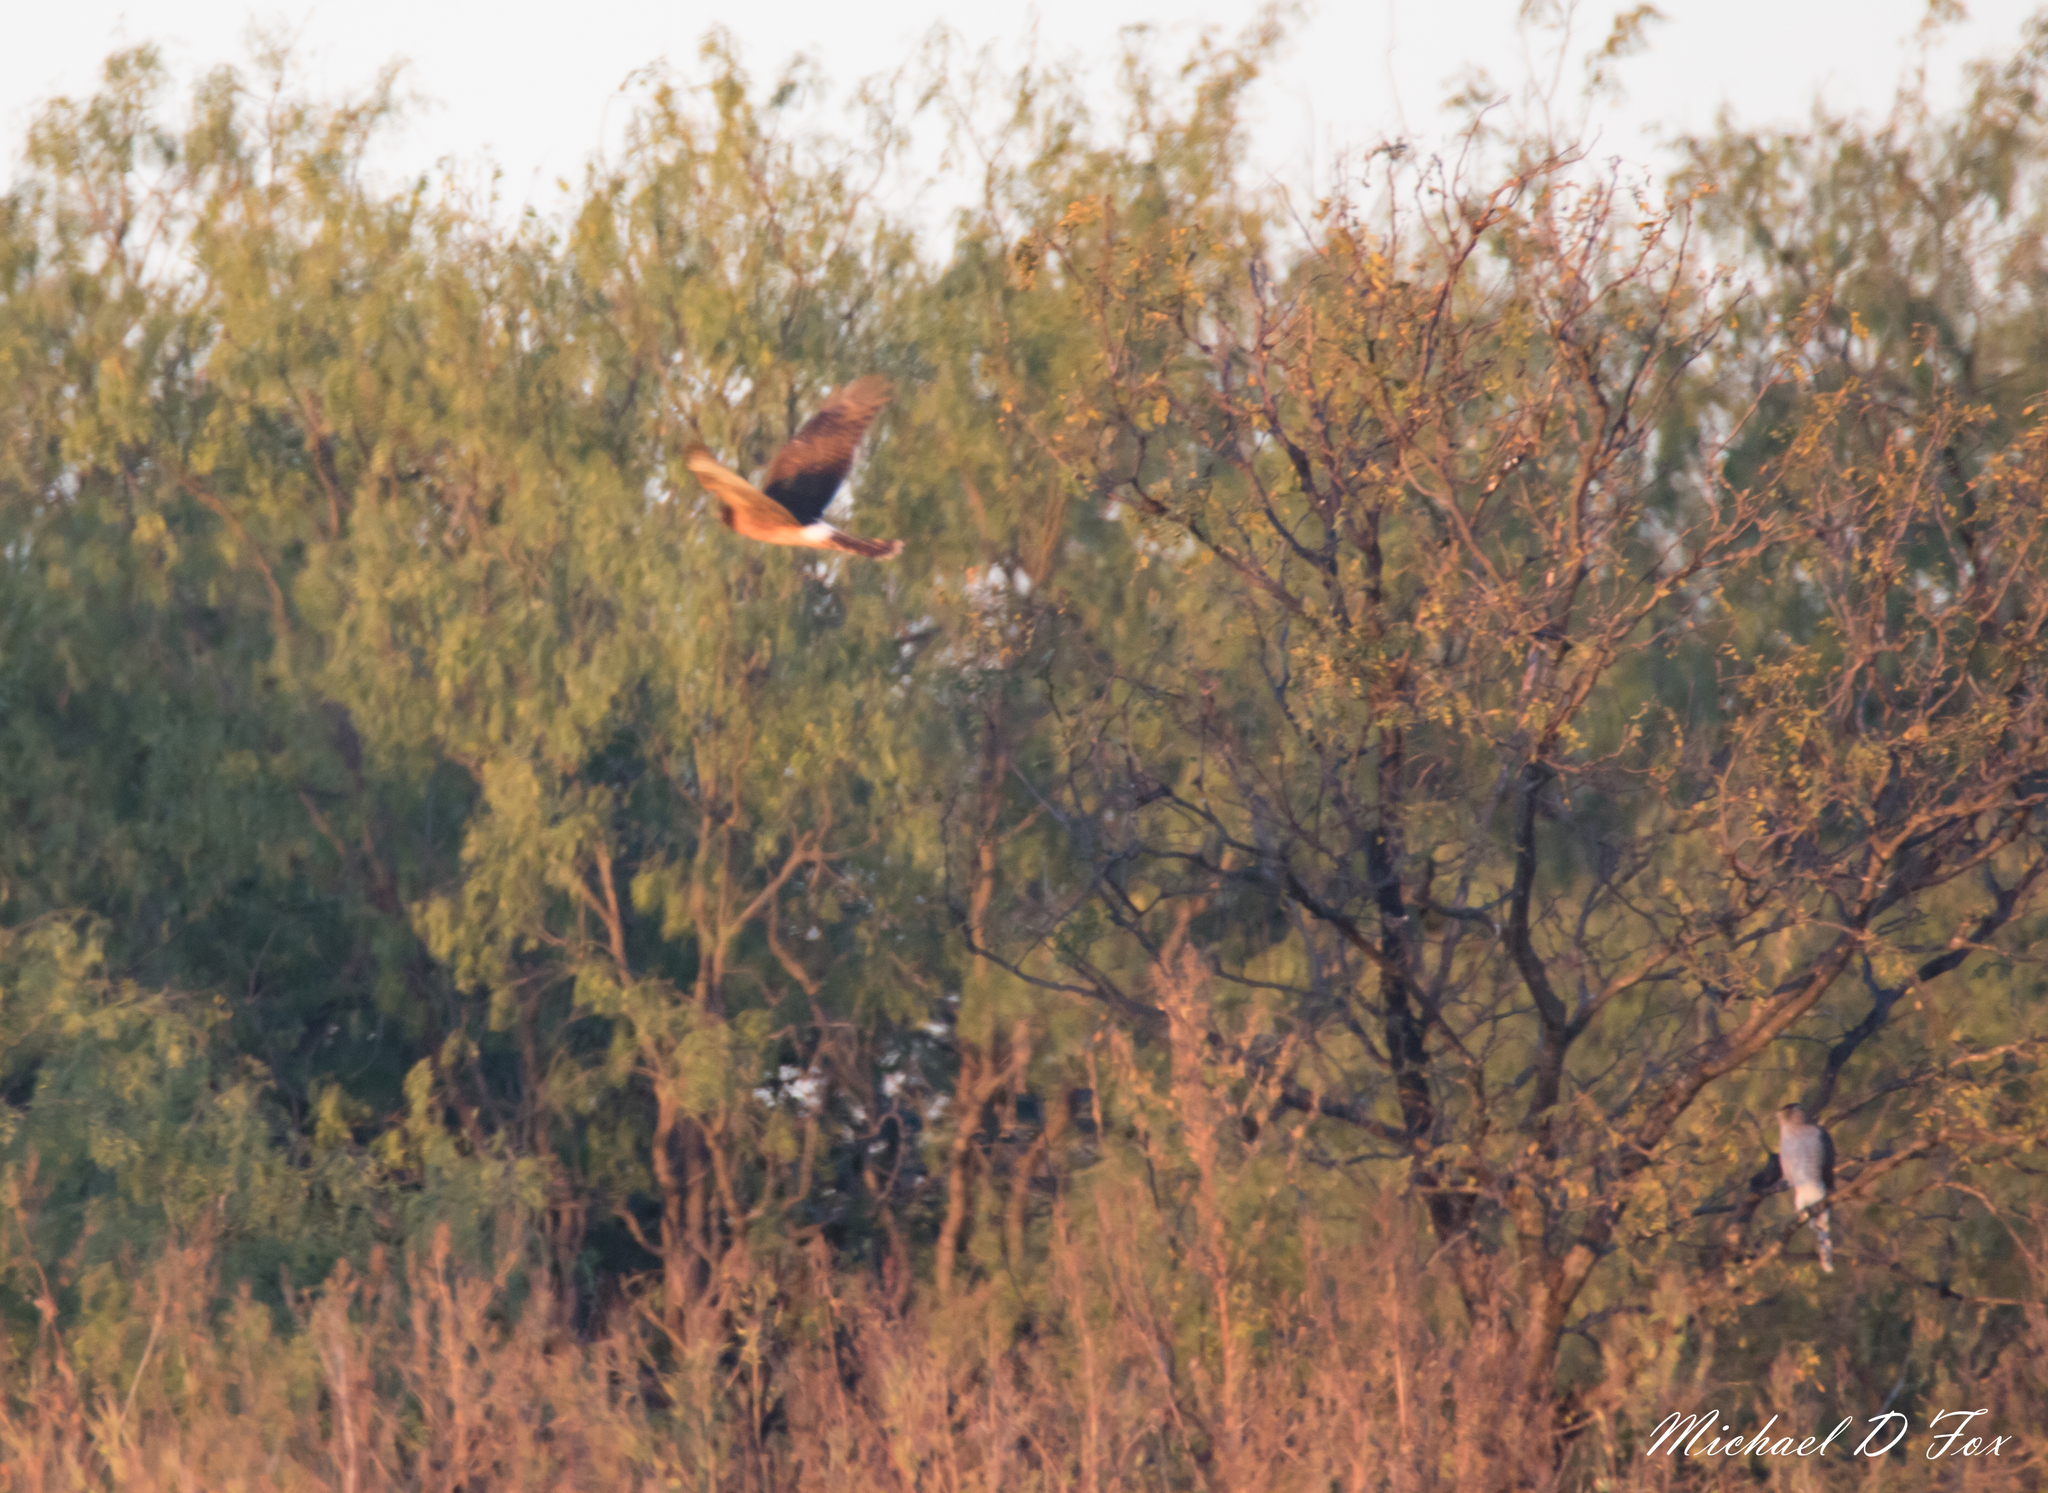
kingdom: Animalia
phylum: Chordata
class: Aves
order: Accipitriformes
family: Accipitridae
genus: Circus
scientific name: Circus cyaneus
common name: Hen harrier
